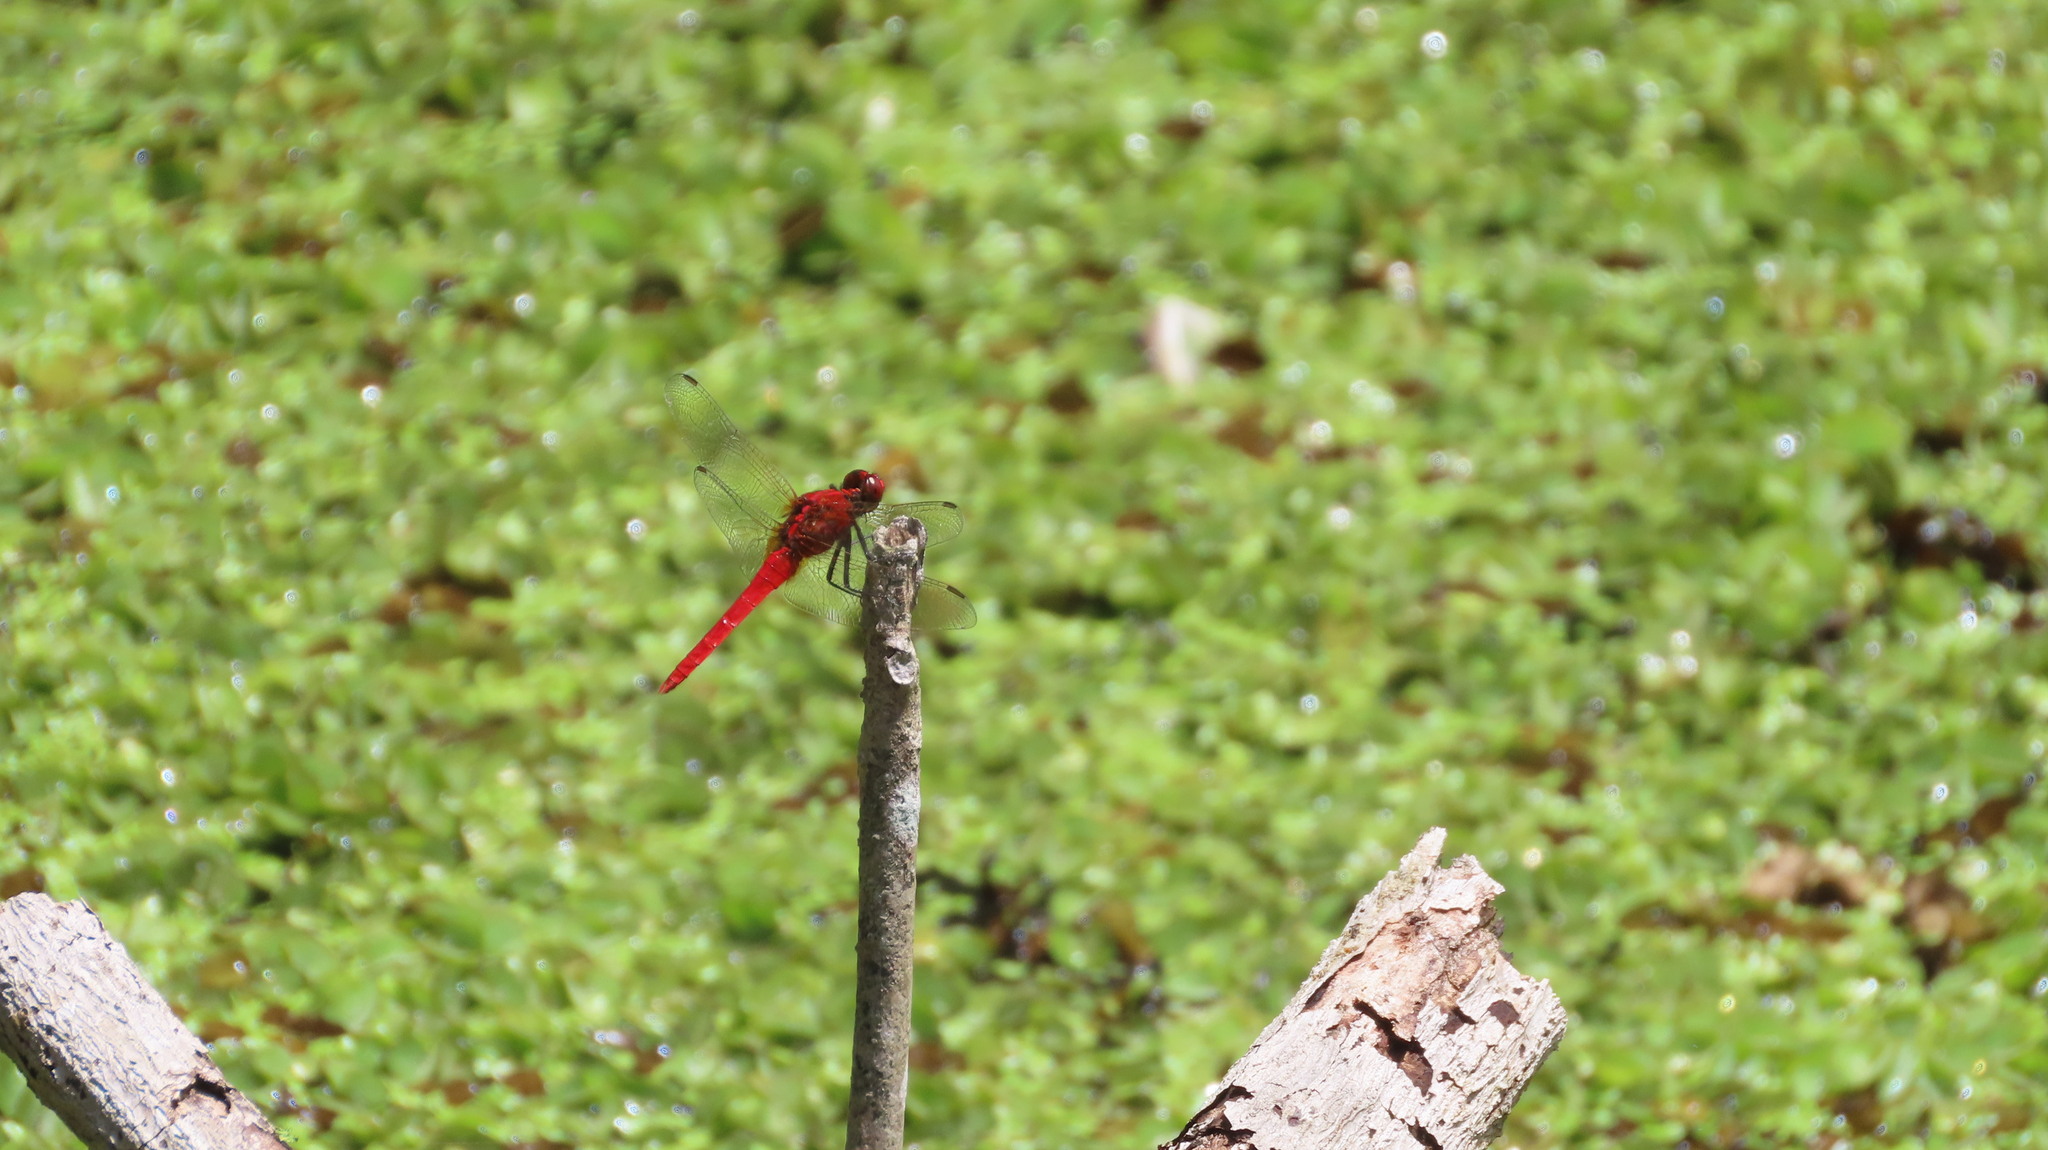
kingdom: Animalia
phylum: Arthropoda
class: Insecta
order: Odonata
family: Libellulidae
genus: Rhodothemis
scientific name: Rhodothemis rufa
